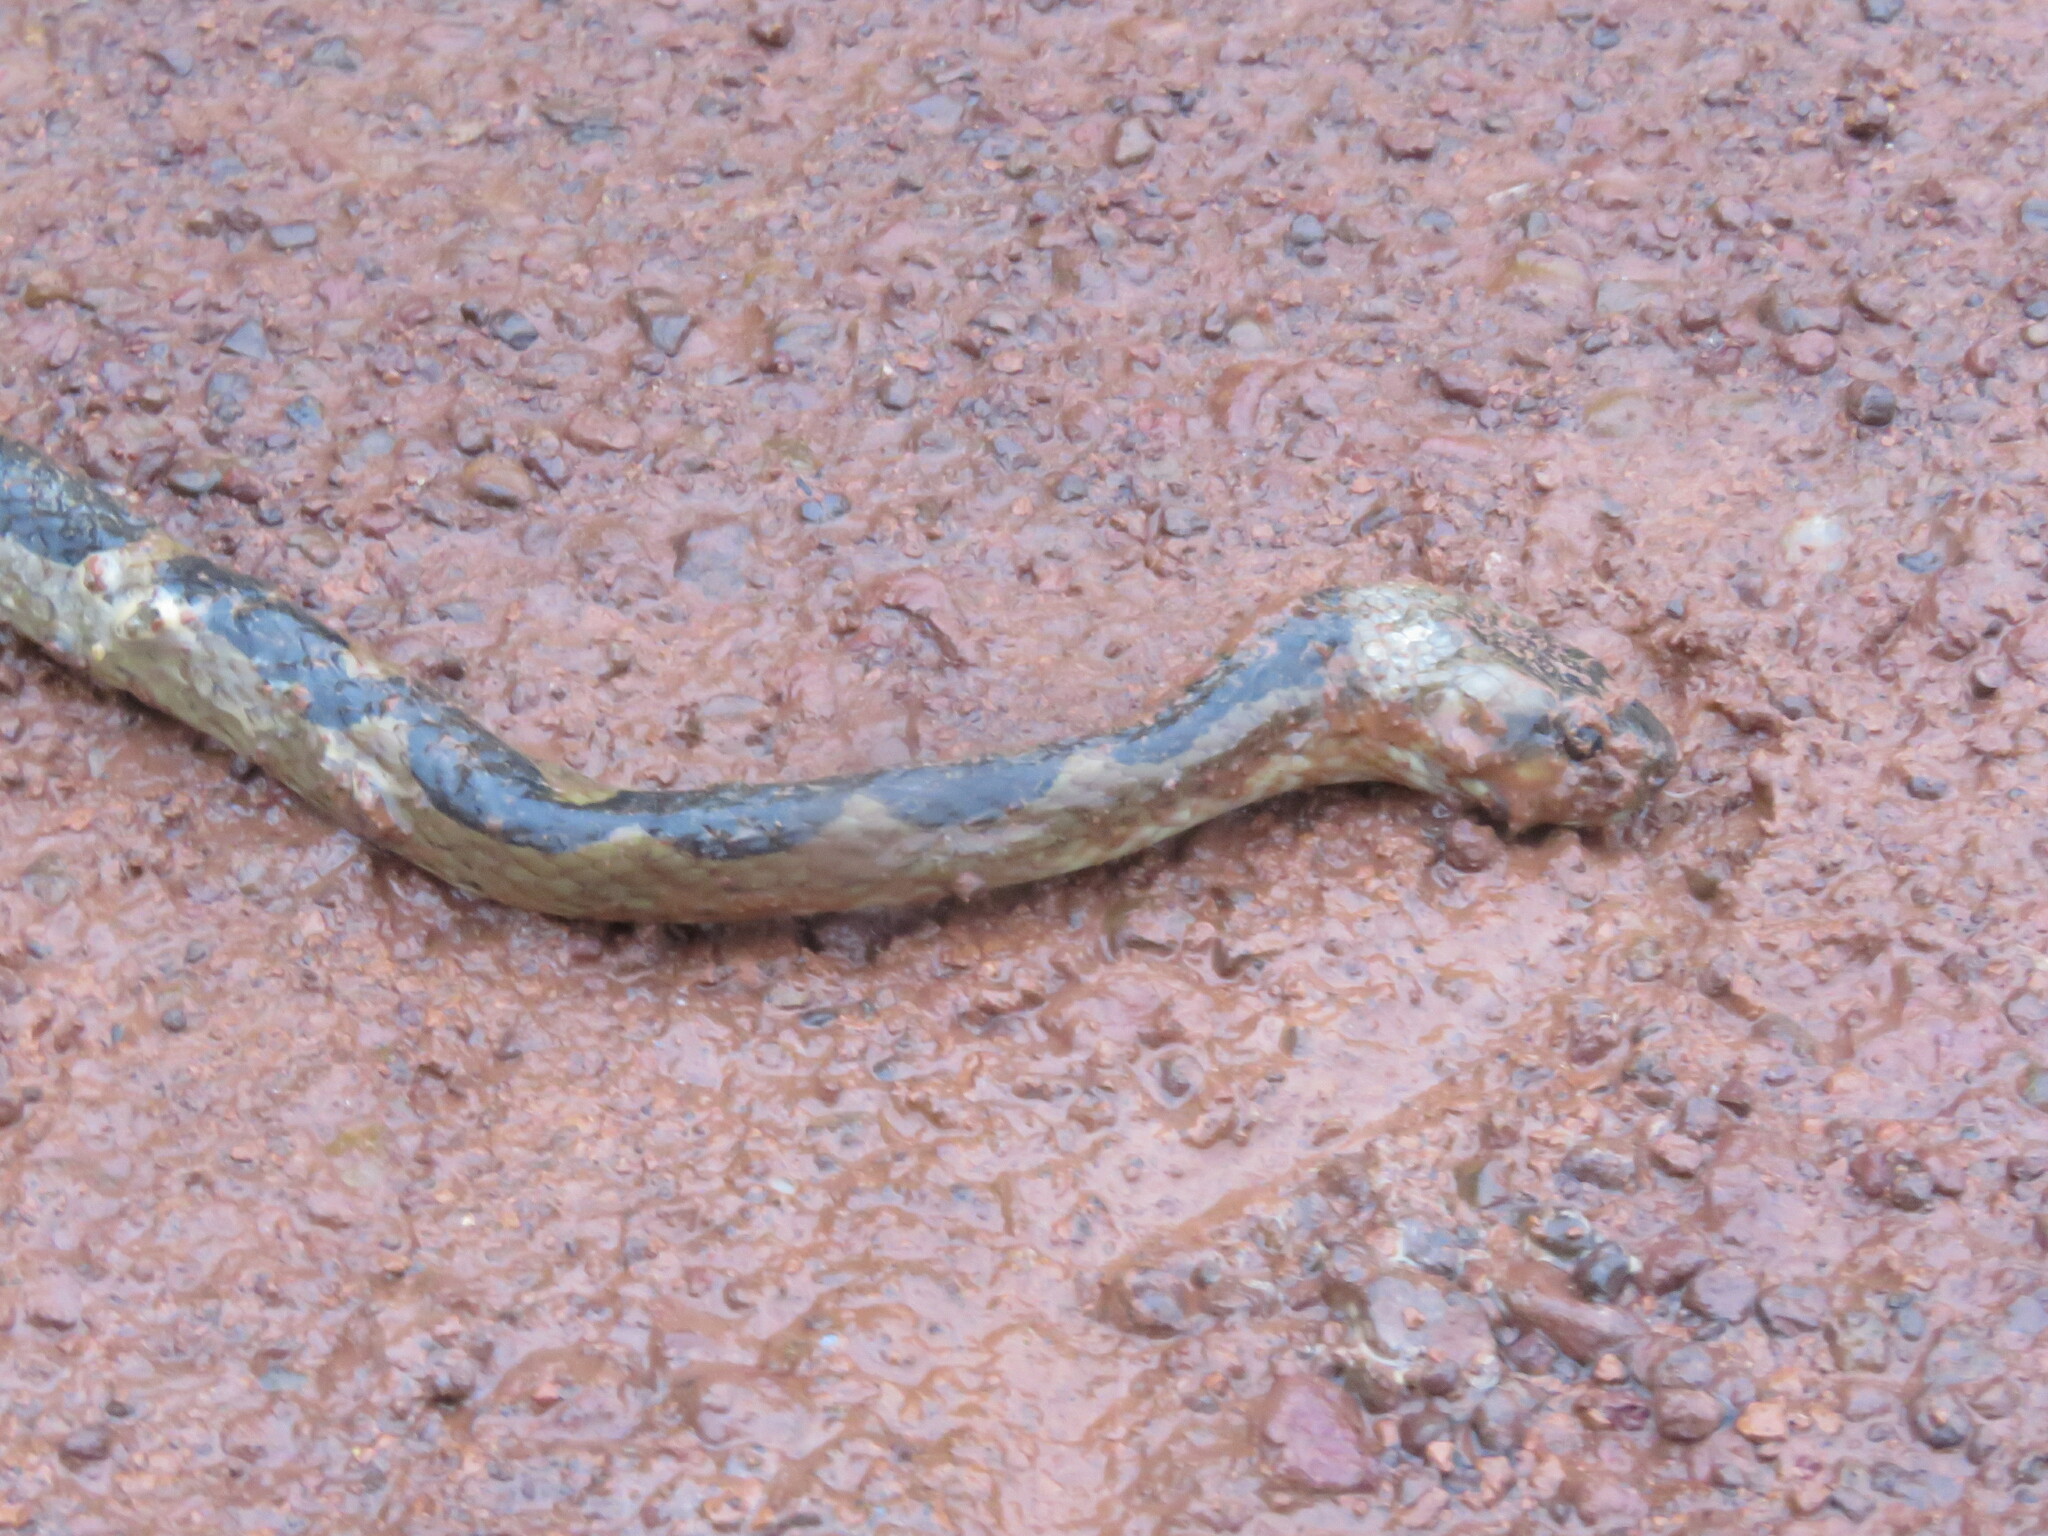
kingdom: Animalia
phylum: Chordata
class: Squamata
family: Colubridae
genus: Leptodeira
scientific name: Leptodeira annulata
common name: Banded cat-eyed snake
